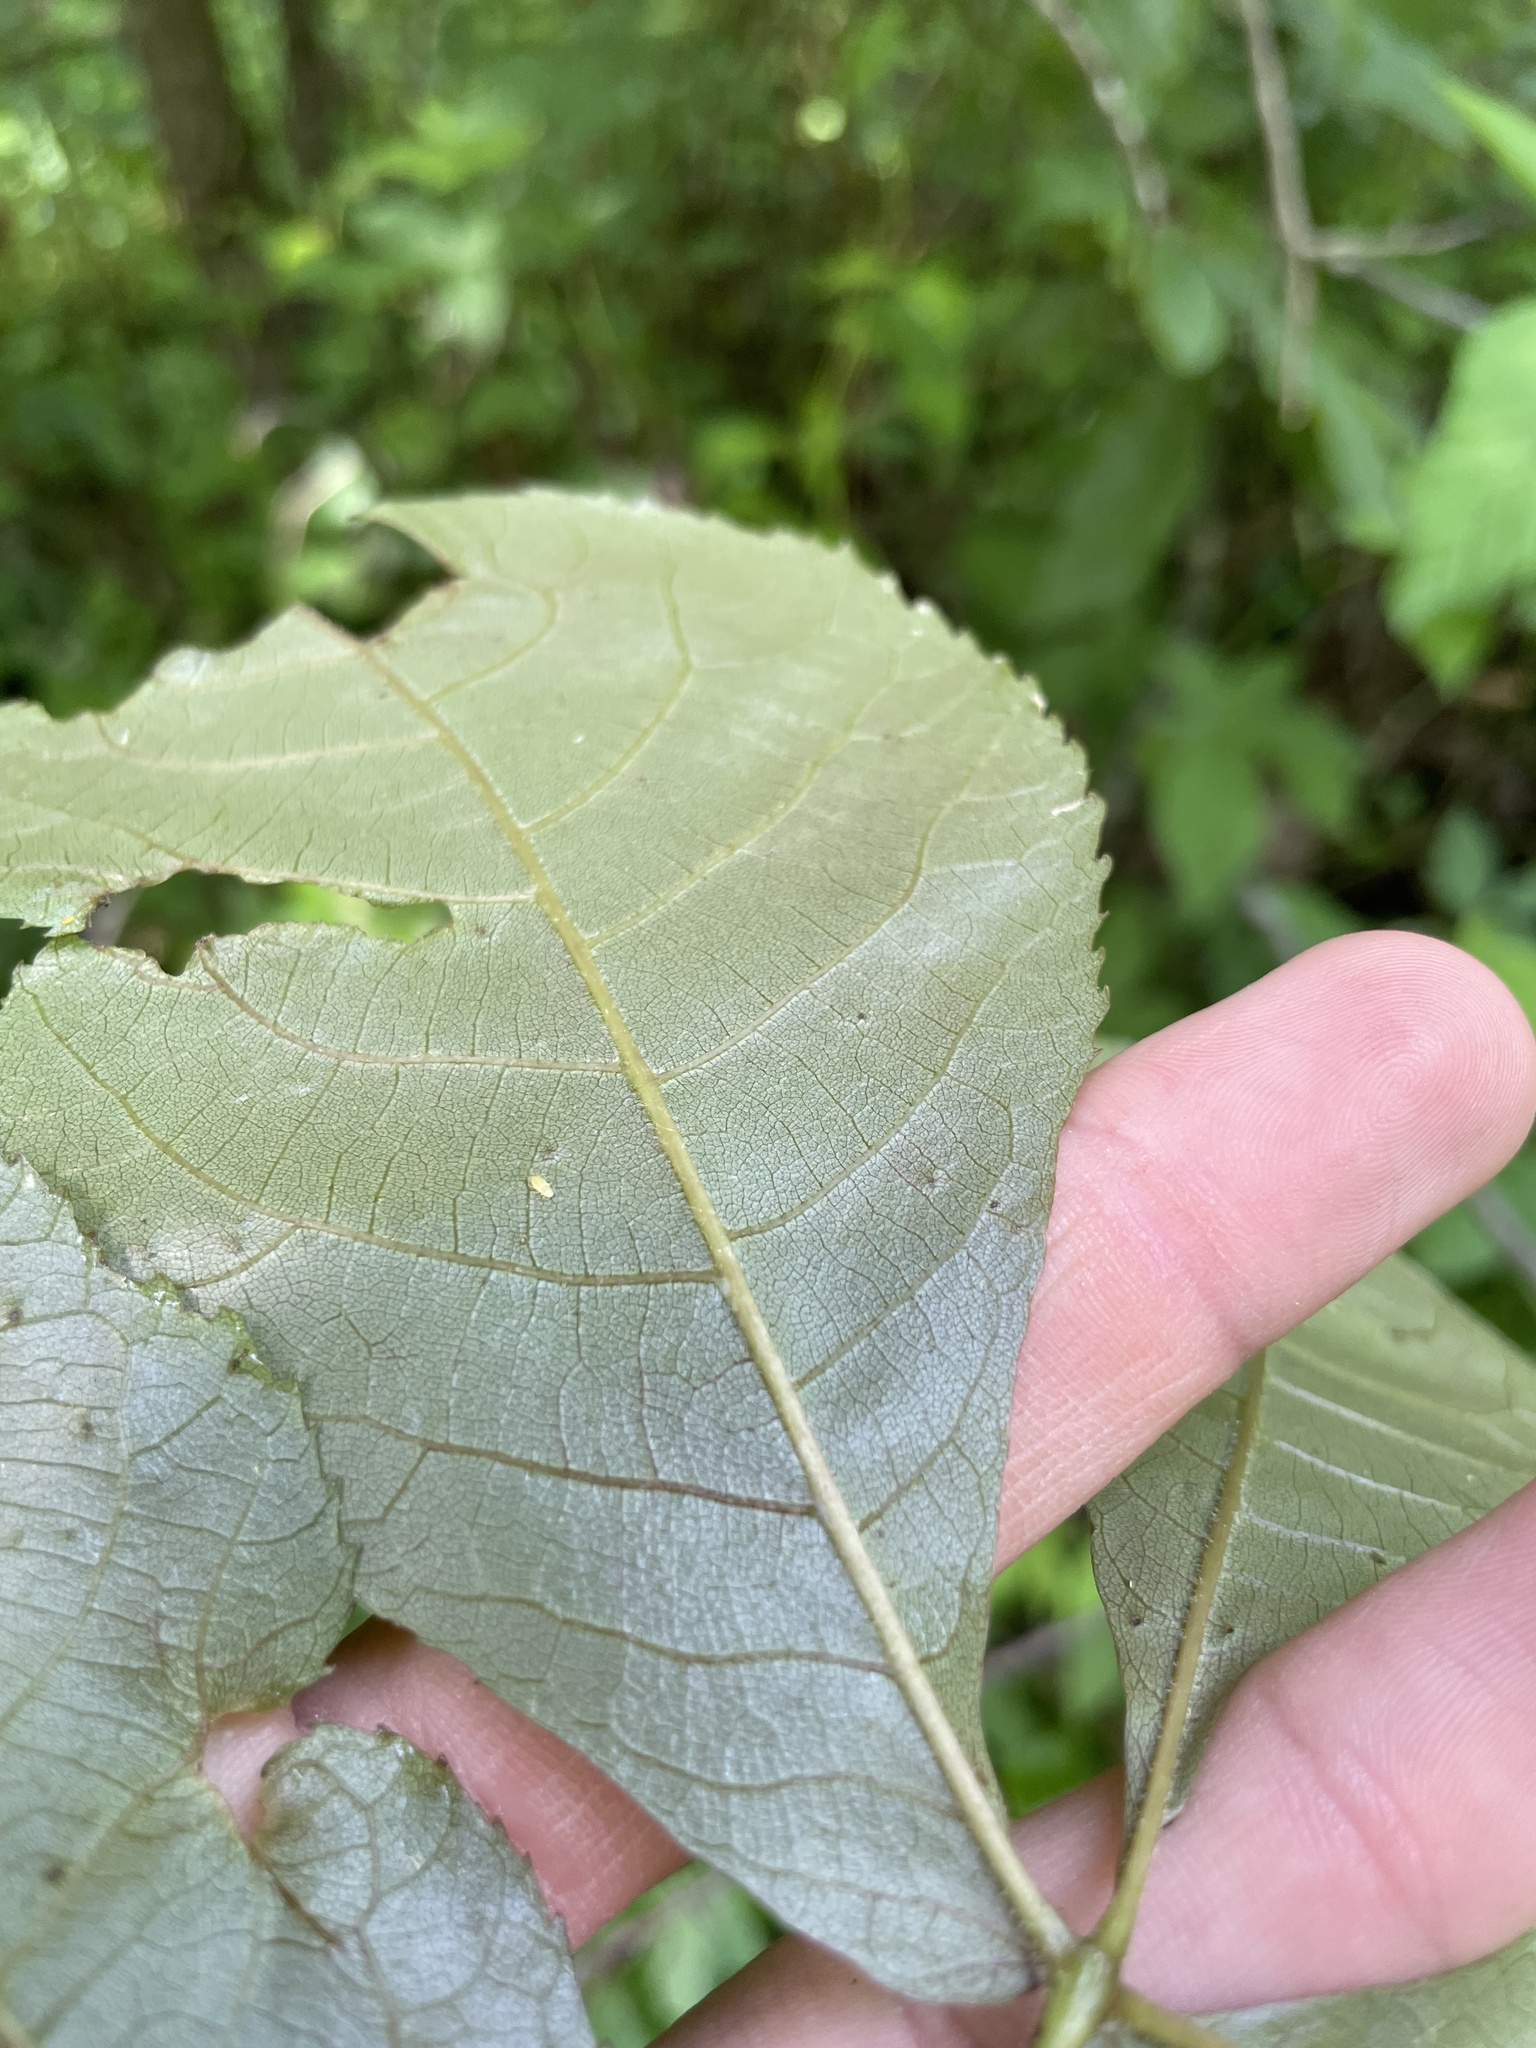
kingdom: Plantae
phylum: Tracheophyta
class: Magnoliopsida
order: Fagales
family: Juglandaceae
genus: Carya
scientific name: Carya ovalis
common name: False shagbark
